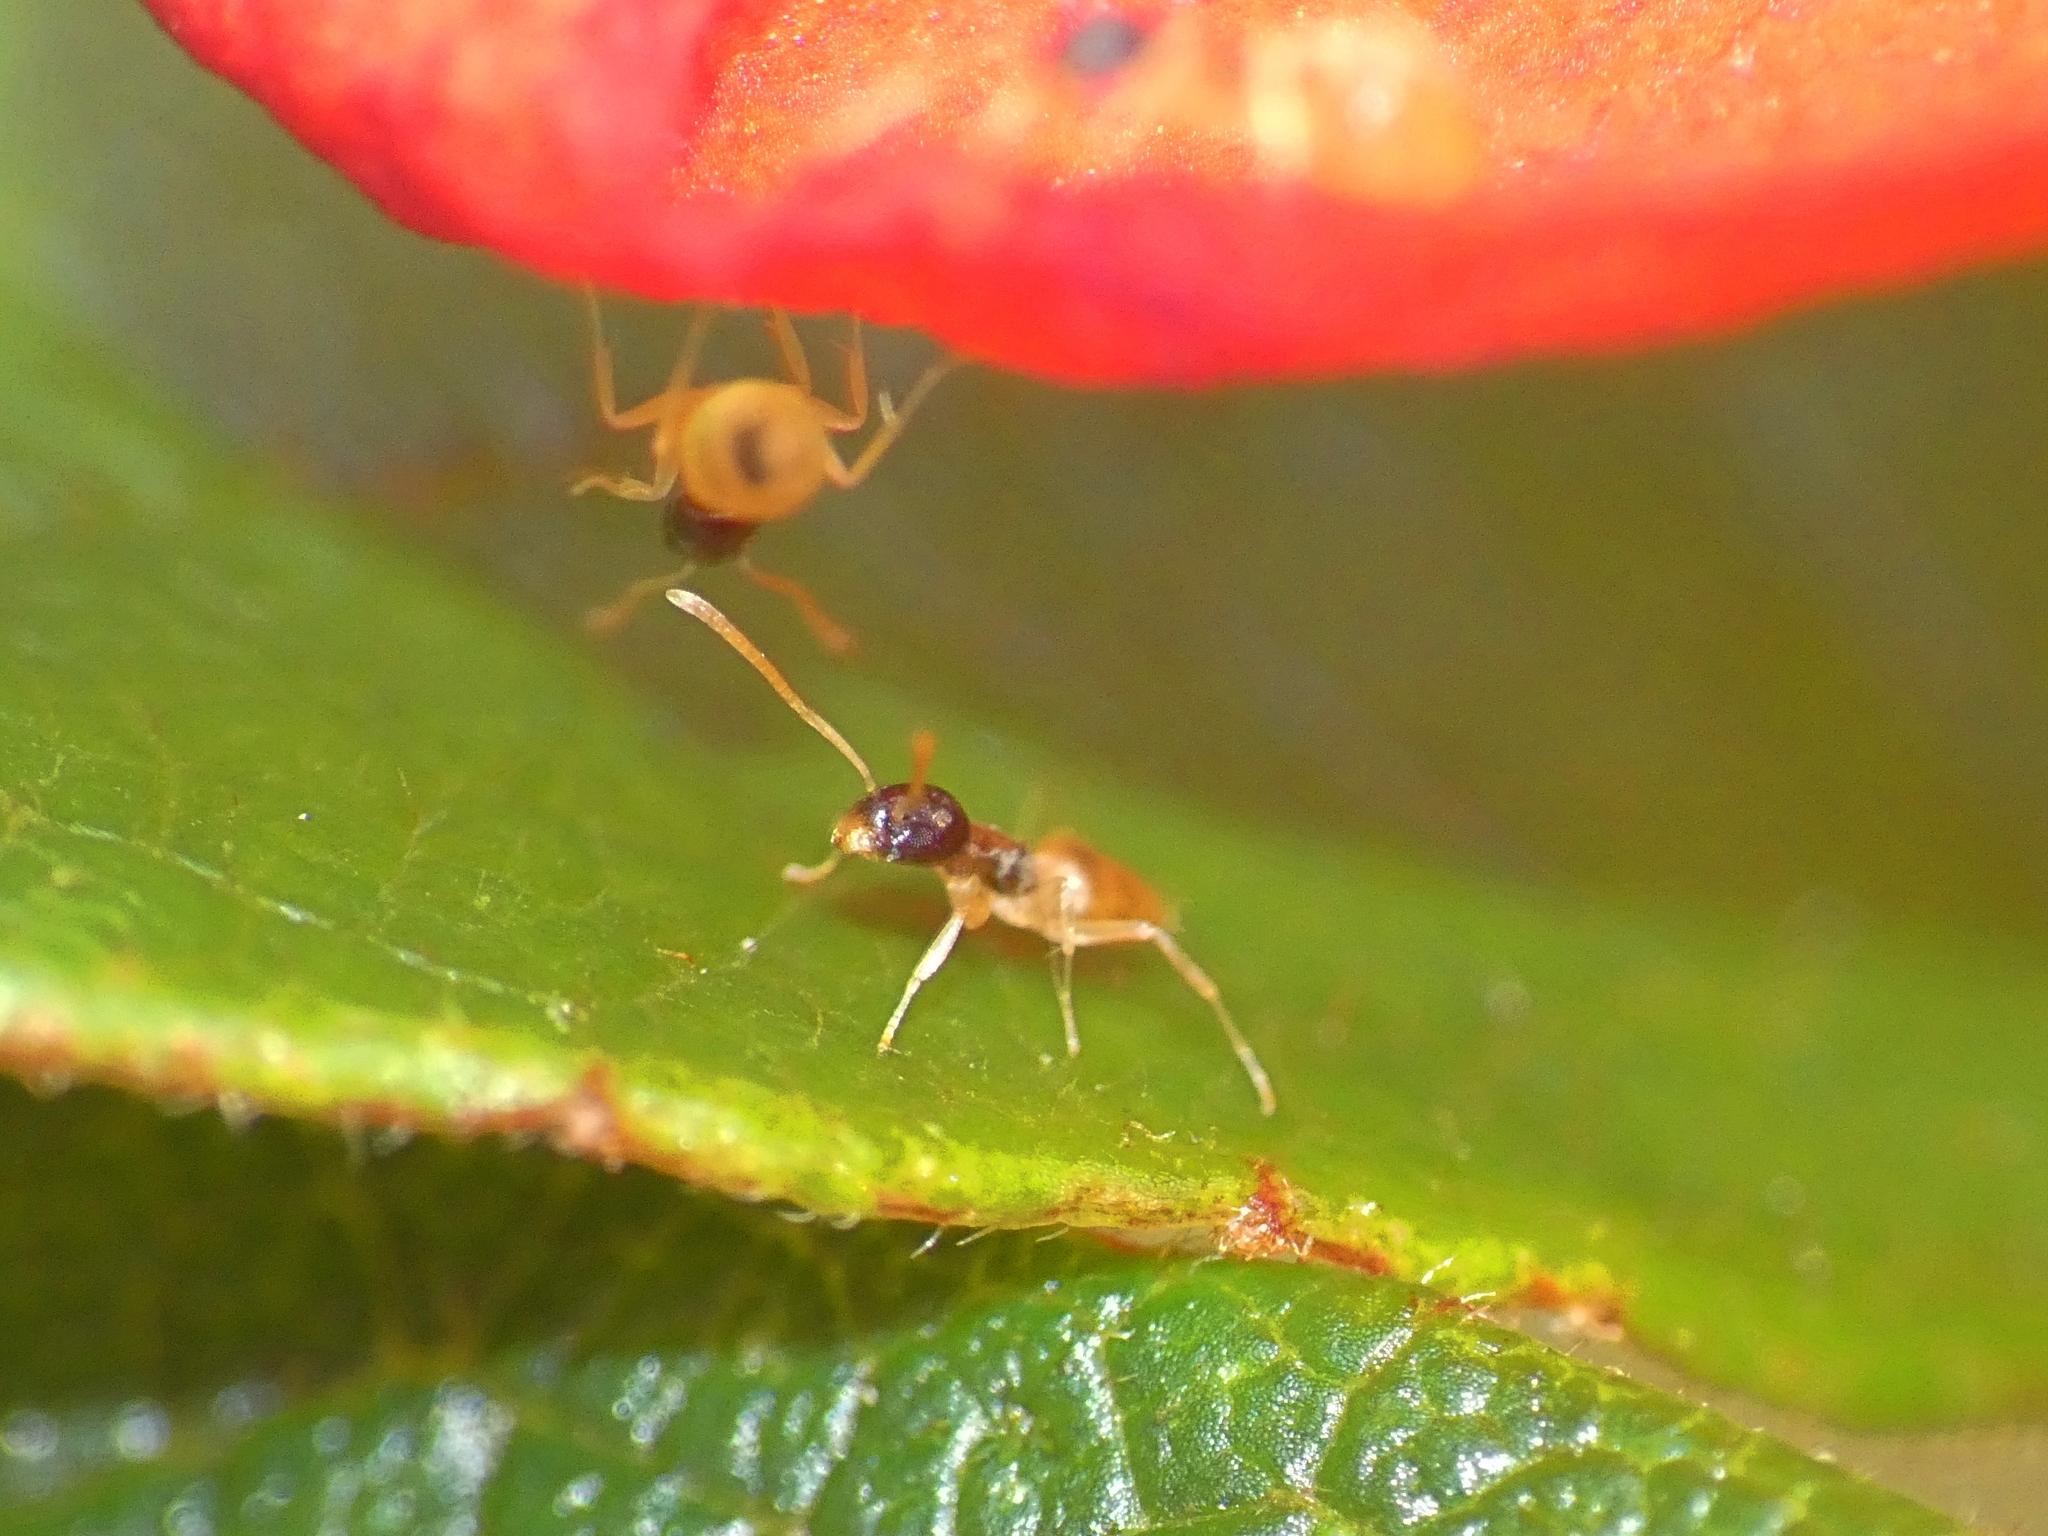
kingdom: Animalia
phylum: Arthropoda
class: Insecta
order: Hymenoptera
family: Formicidae
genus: Tapinoma
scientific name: Tapinoma melanocephalum
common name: Ghost ant
